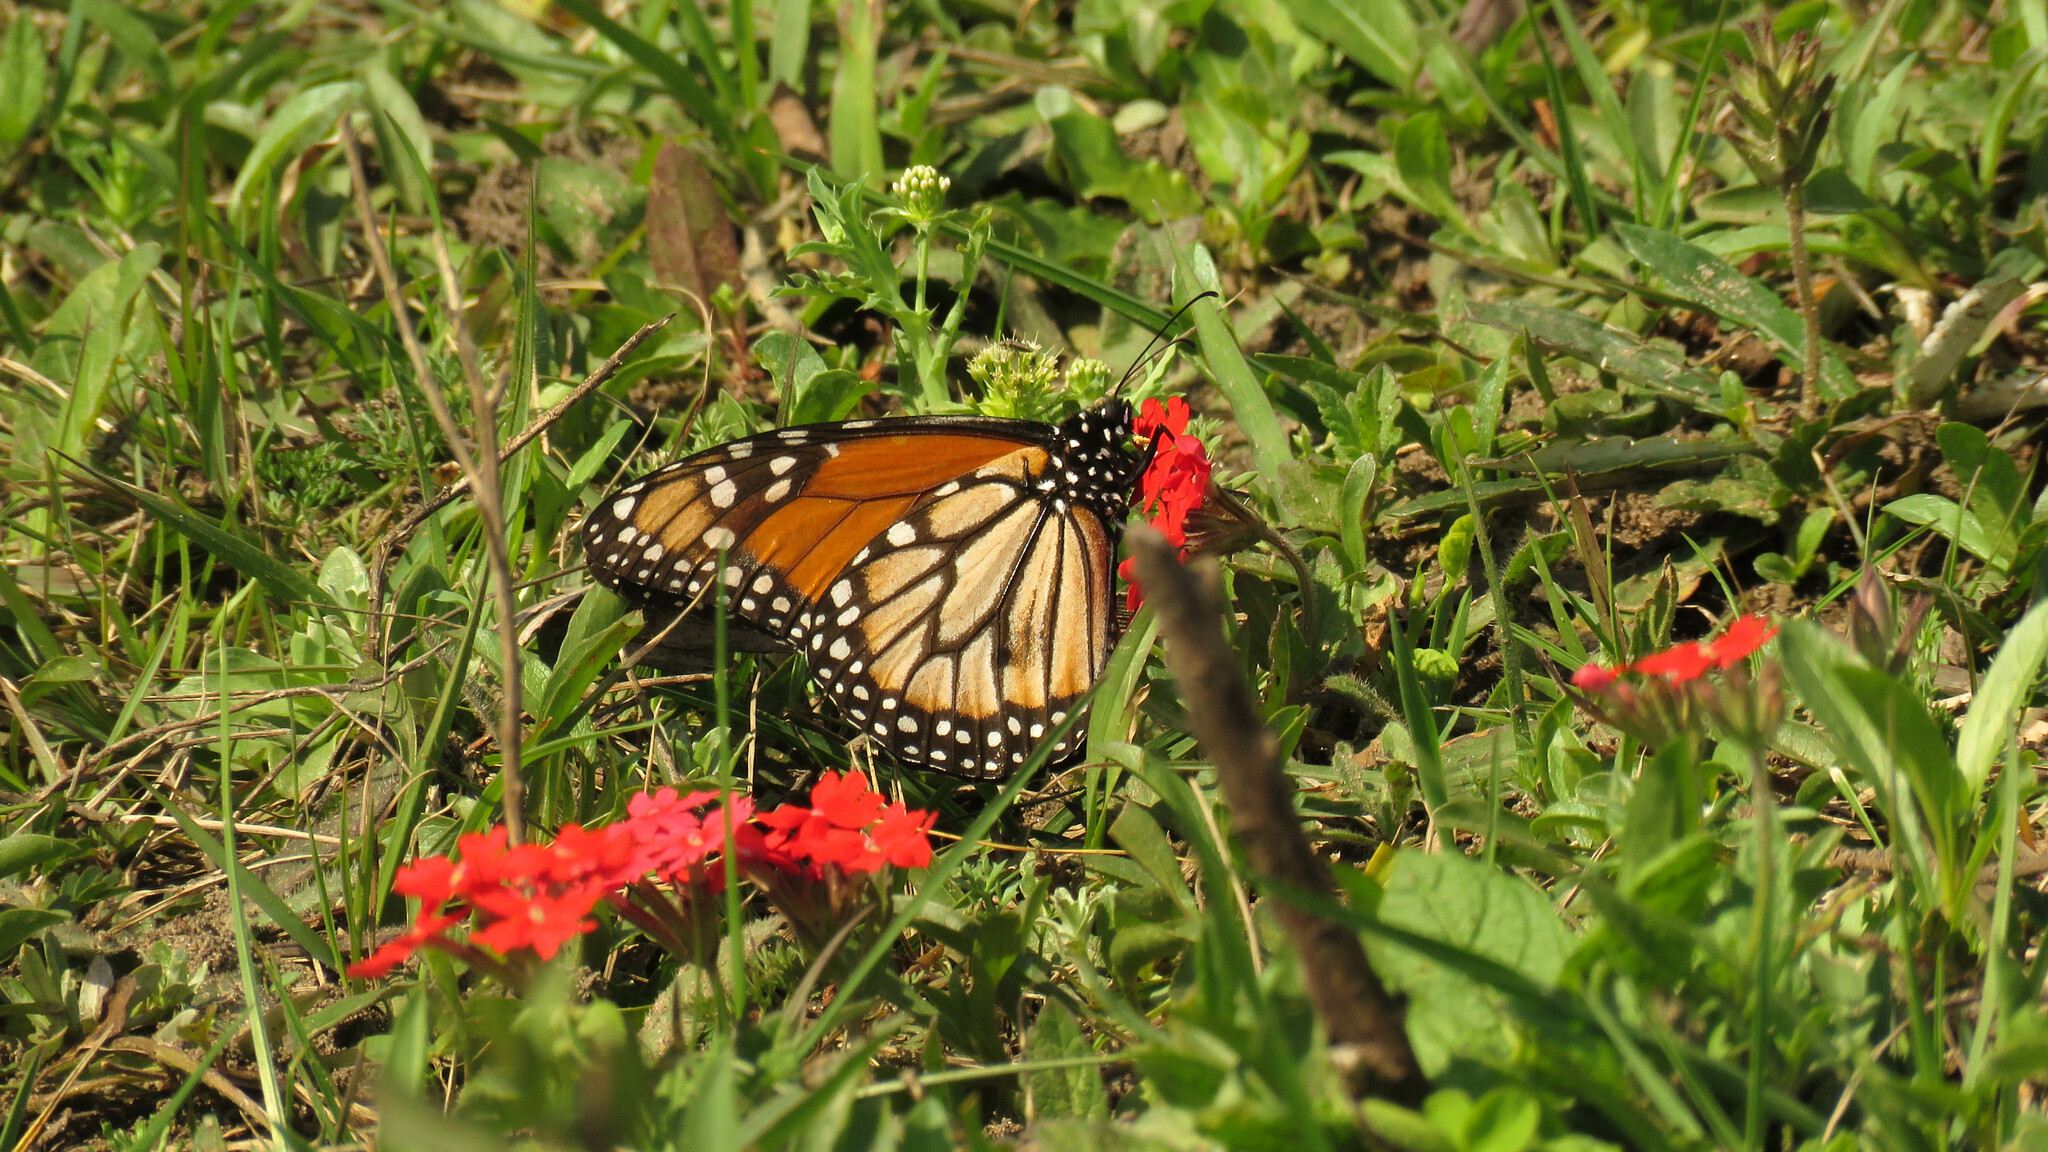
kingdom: Animalia
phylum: Arthropoda
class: Insecta
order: Lepidoptera
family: Nymphalidae
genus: Danaus
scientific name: Danaus erippus
